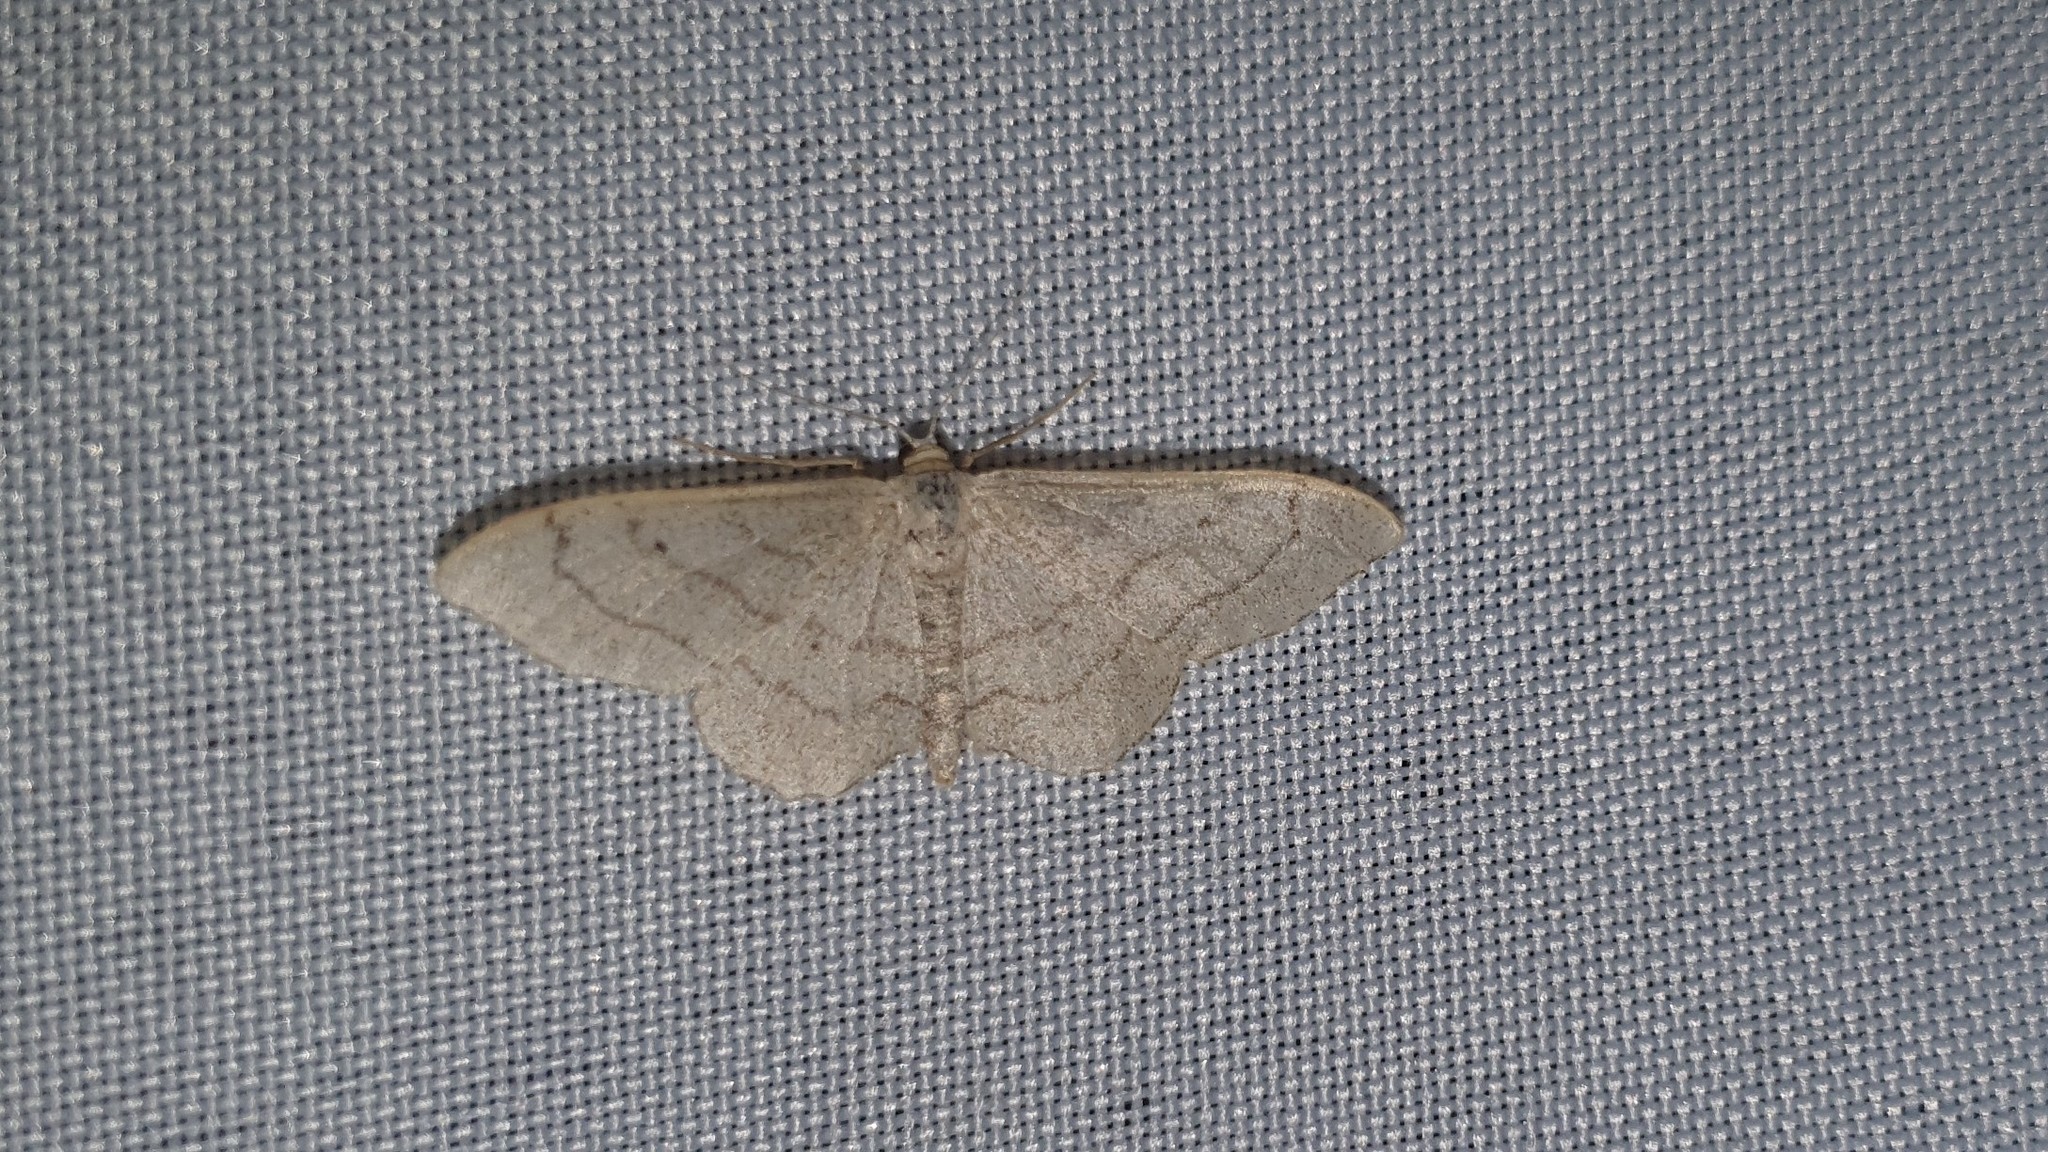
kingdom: Animalia
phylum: Arthropoda
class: Insecta
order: Lepidoptera
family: Geometridae
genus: Idaea
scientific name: Idaea aversata
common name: Riband wave
